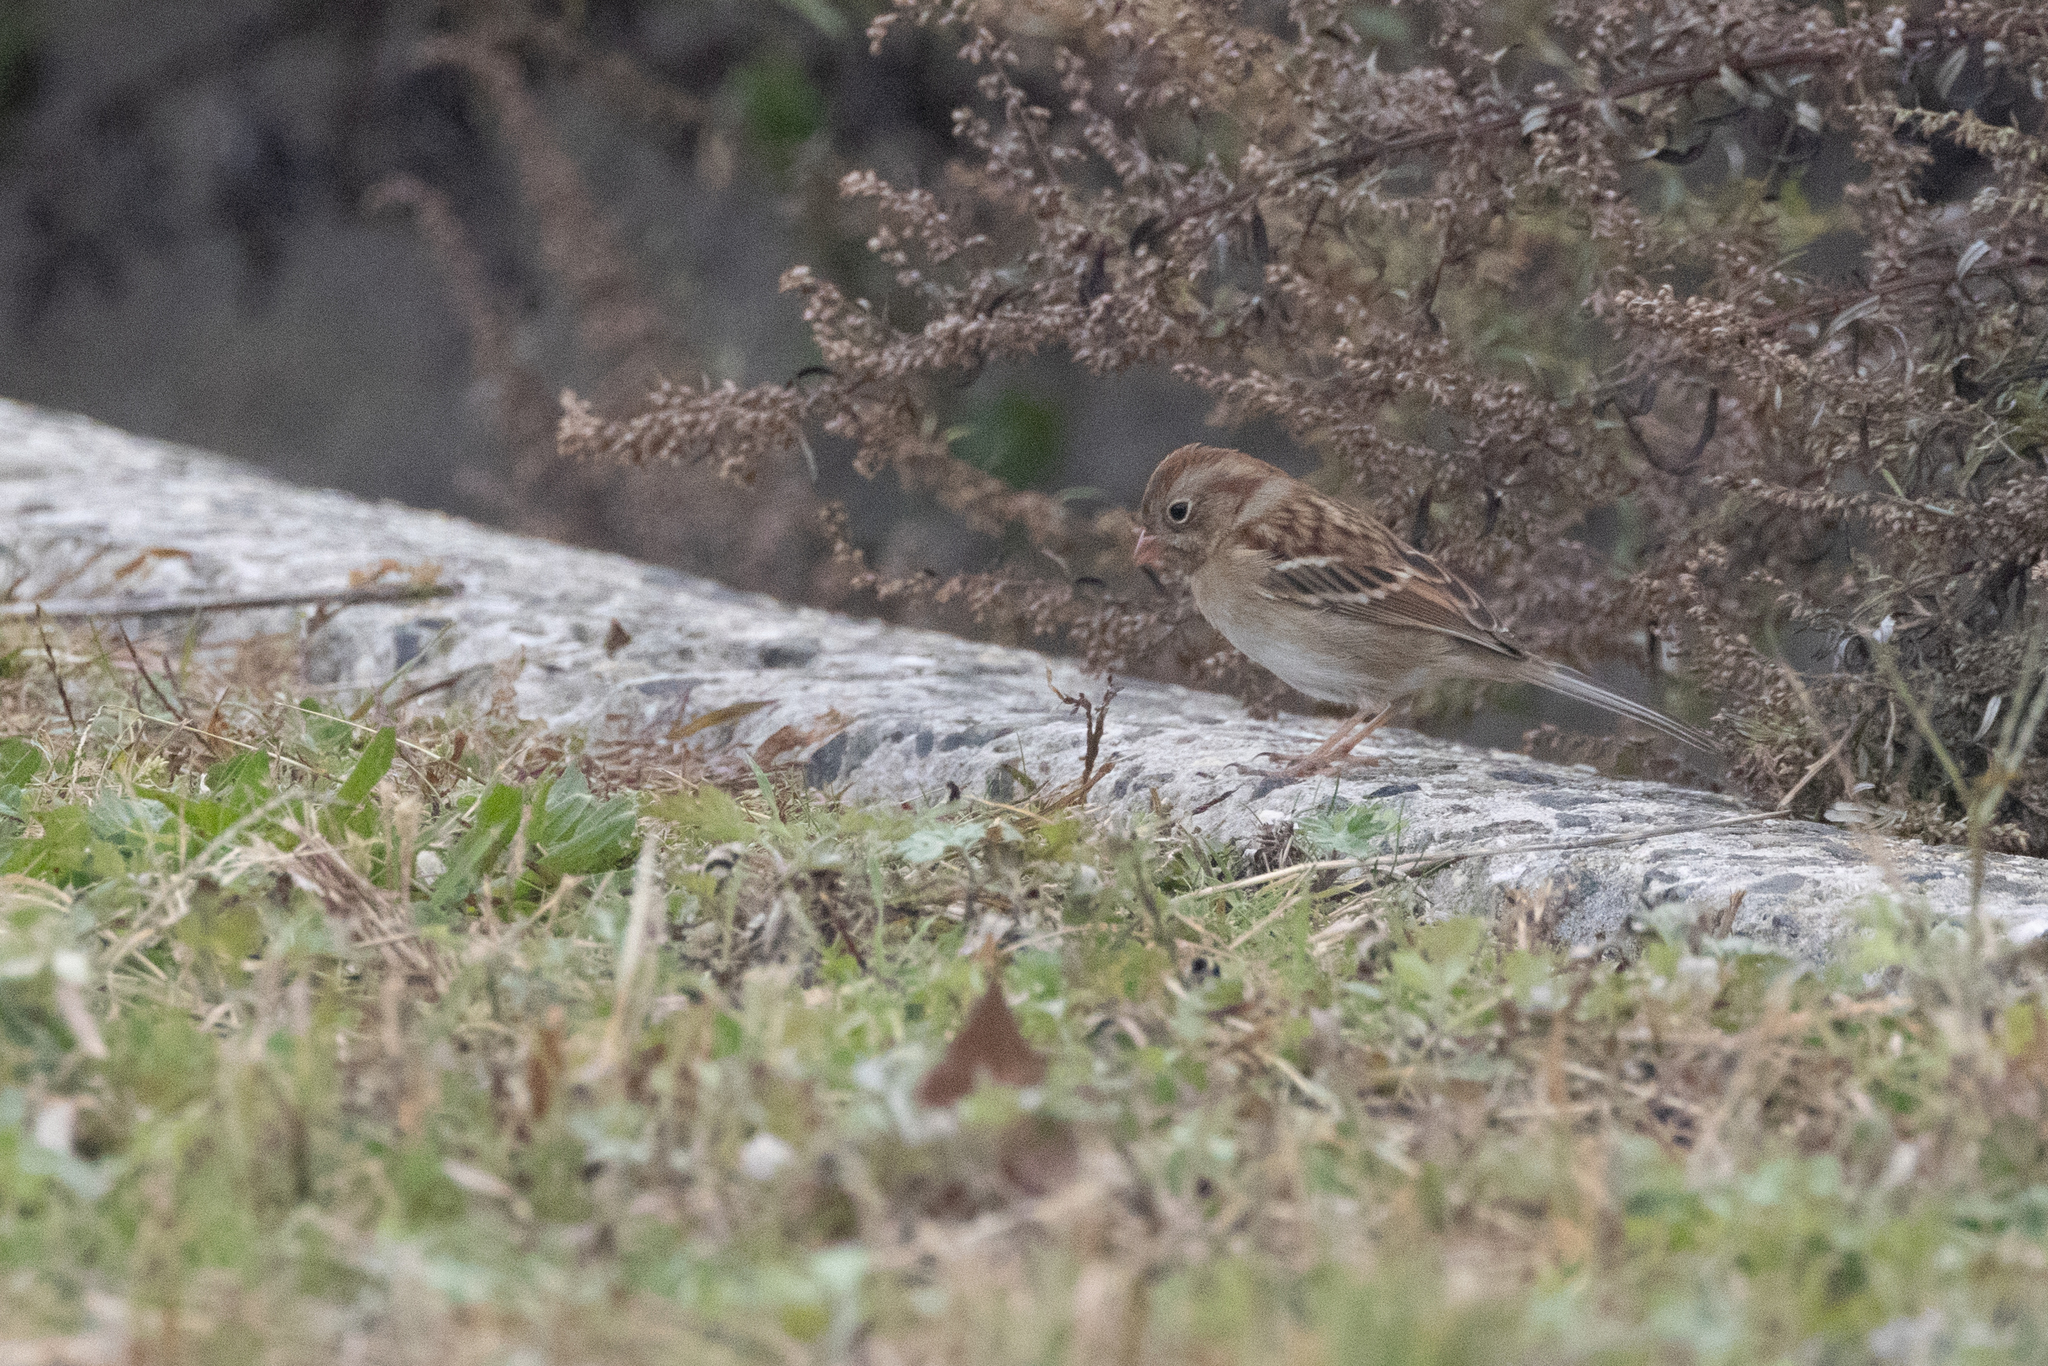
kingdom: Animalia
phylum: Chordata
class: Aves
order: Passeriformes
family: Passerellidae
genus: Spizella
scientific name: Spizella pusilla
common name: Field sparrow
